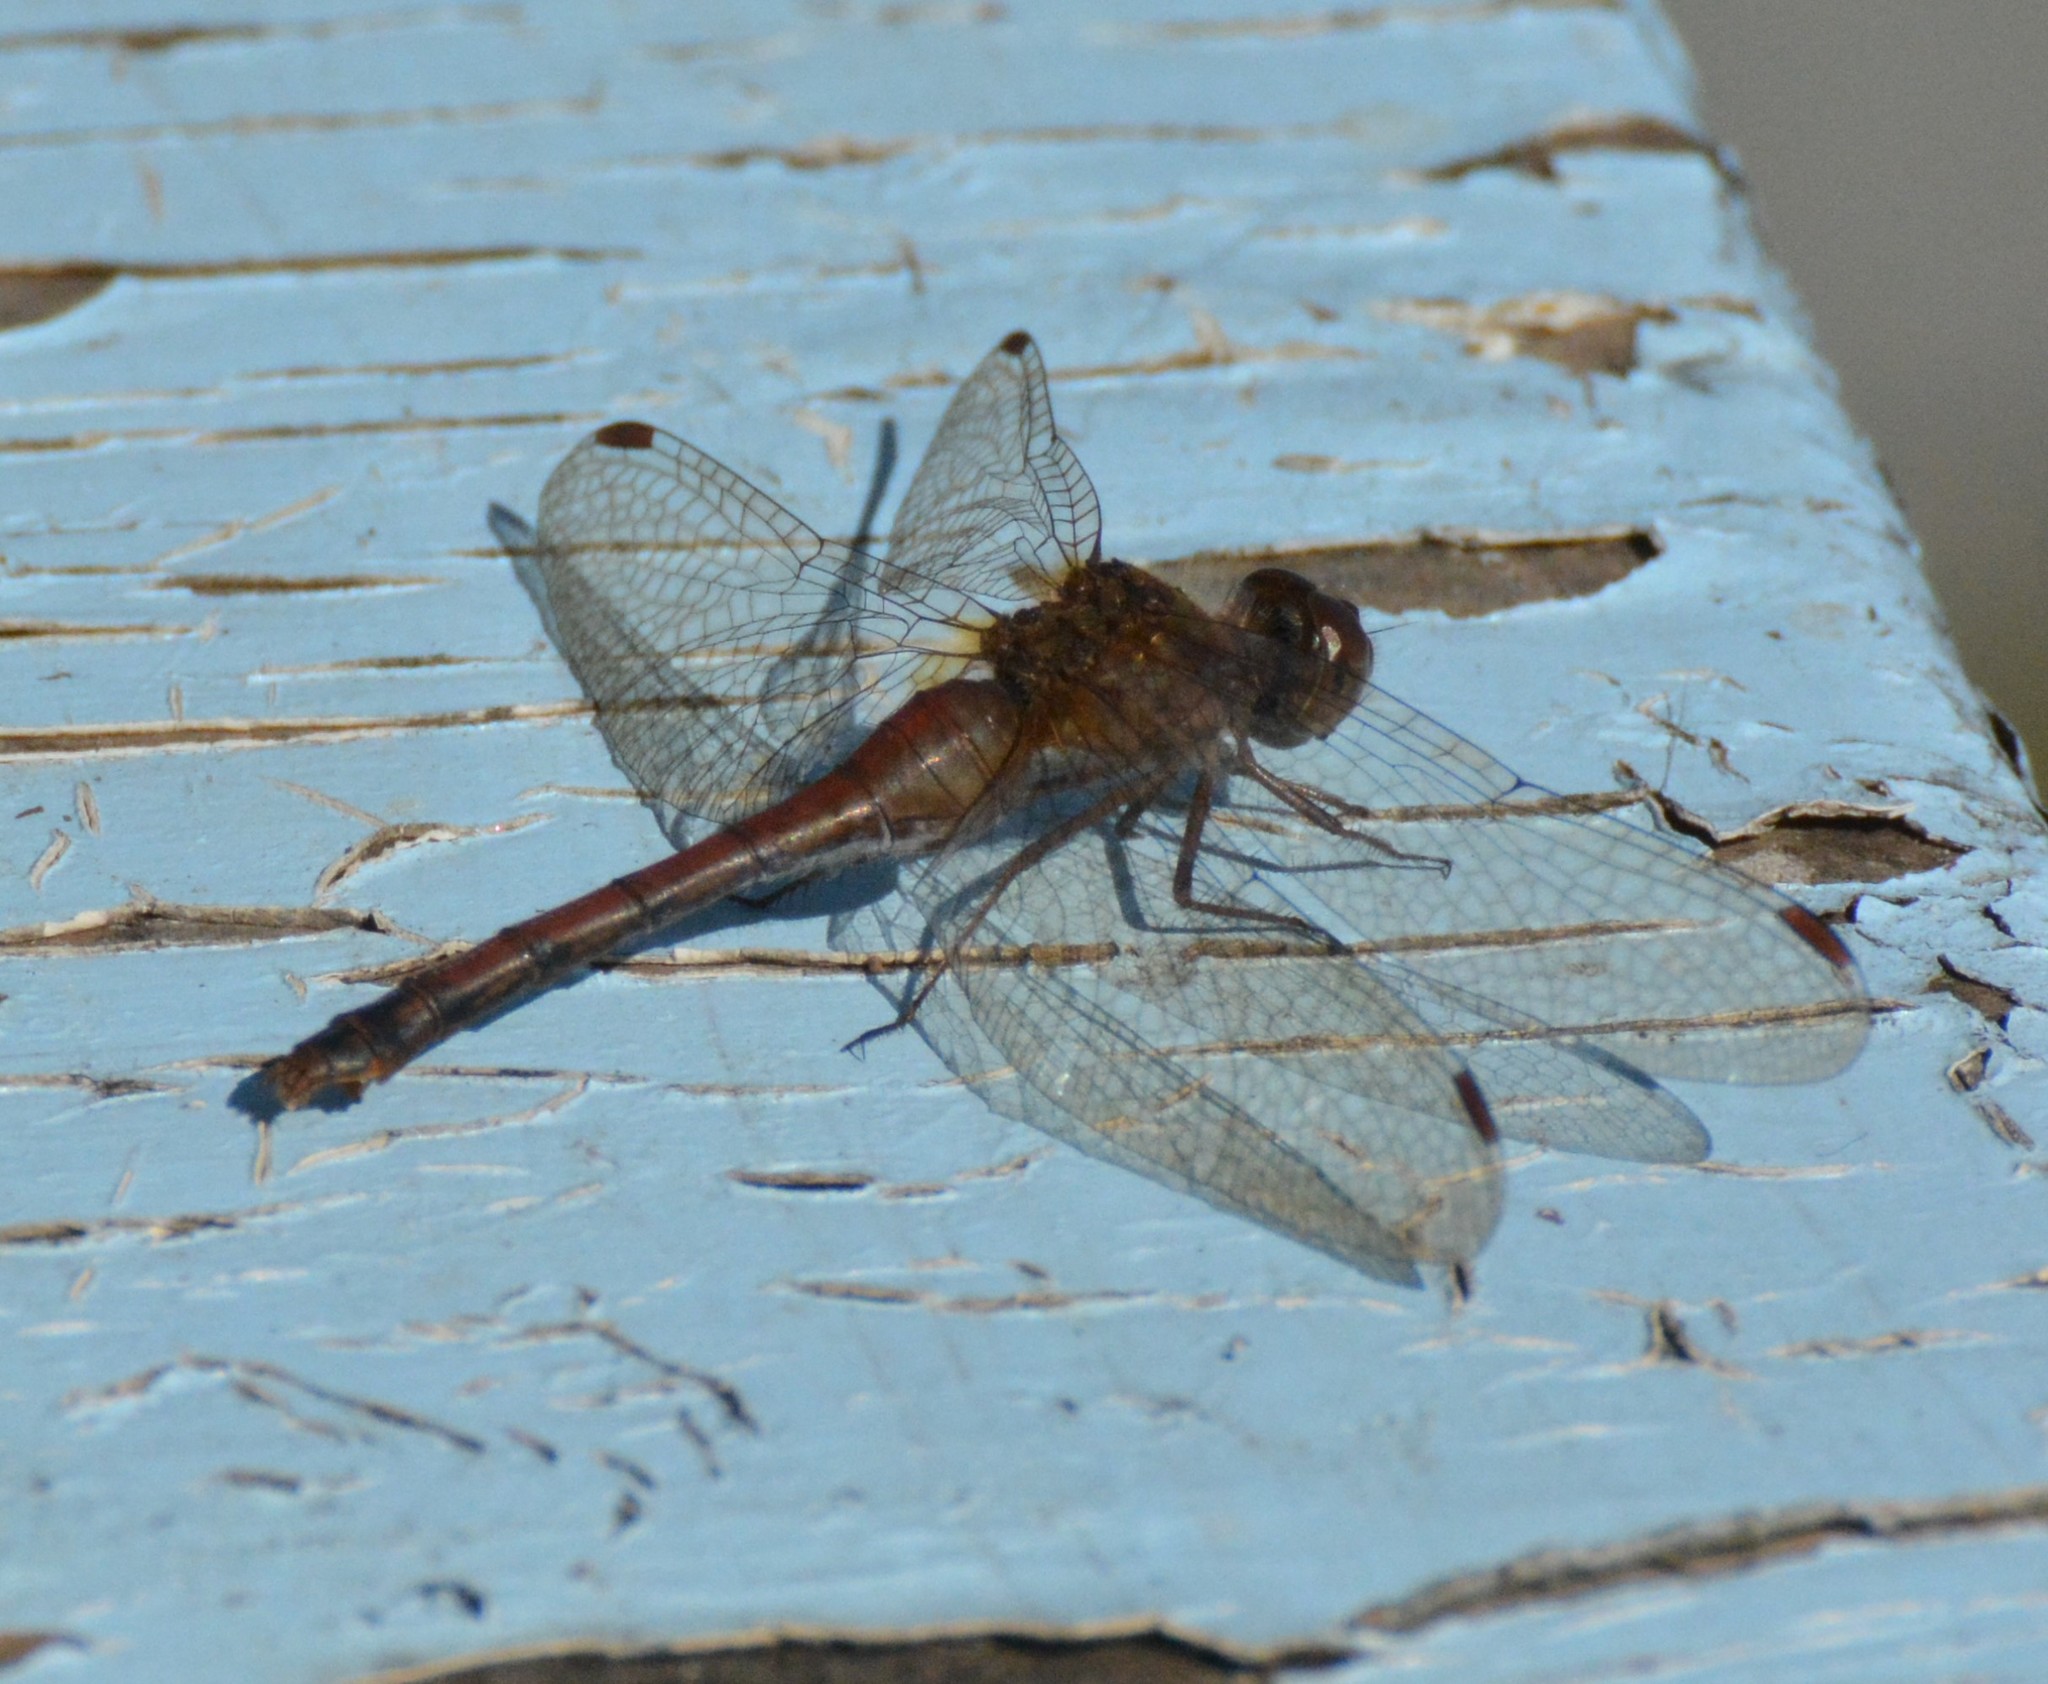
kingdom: Animalia
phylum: Arthropoda
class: Insecta
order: Odonata
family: Libellulidae
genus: Sympetrum
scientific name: Sympetrum vicinum
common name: Autumn meadowhawk
